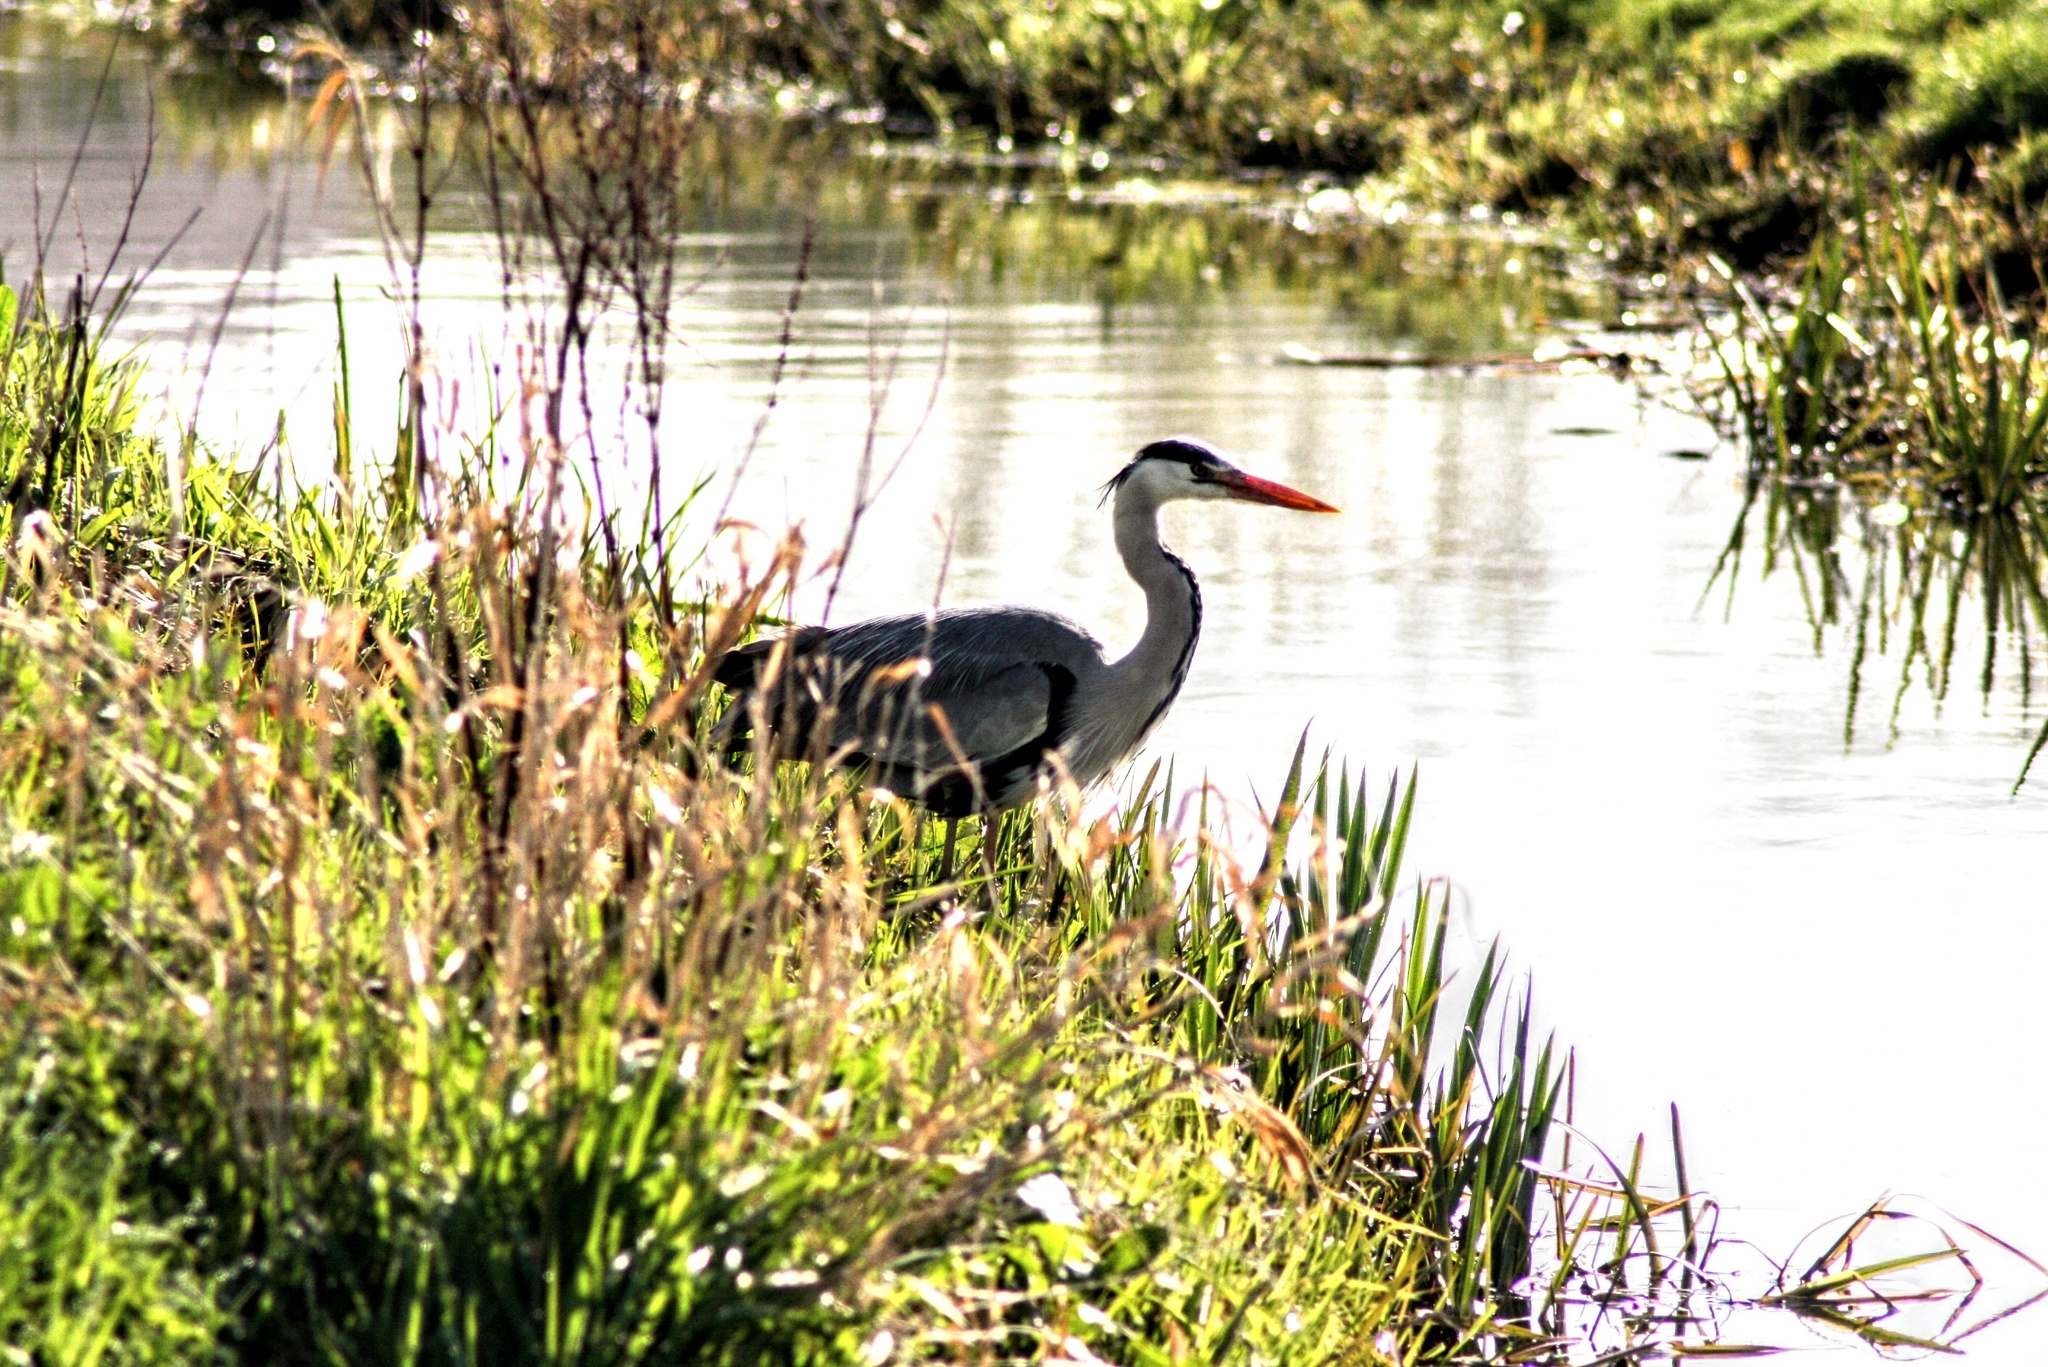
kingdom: Animalia
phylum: Chordata
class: Aves
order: Pelecaniformes
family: Ardeidae
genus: Ardea
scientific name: Ardea cinerea
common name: Grey heron
